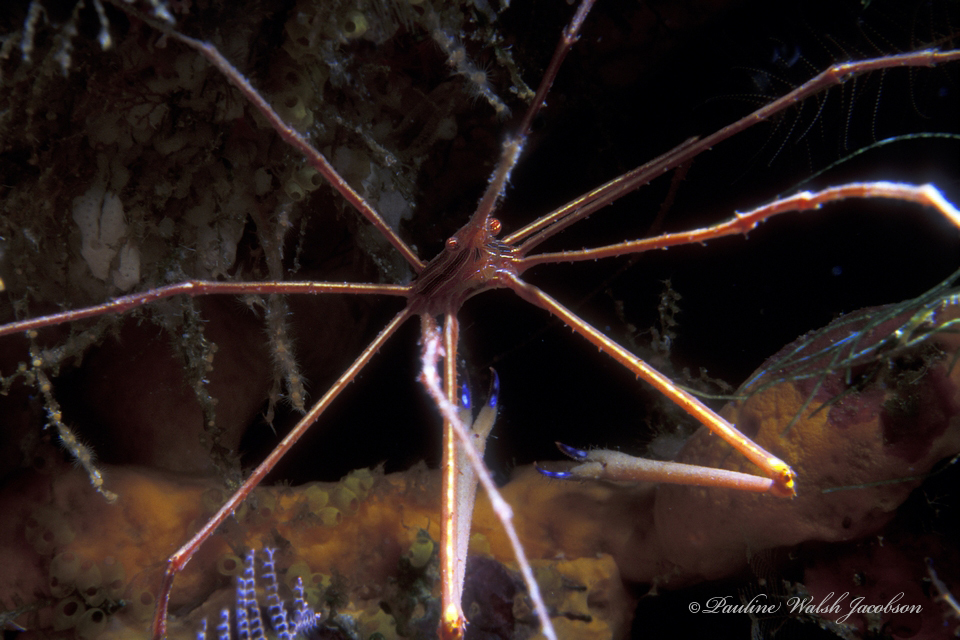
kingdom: Animalia
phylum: Arthropoda
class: Malacostraca
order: Decapoda
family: Inachoididae
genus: Stenorhynchus
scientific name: Stenorhynchus seticornis
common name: Arrow crab
